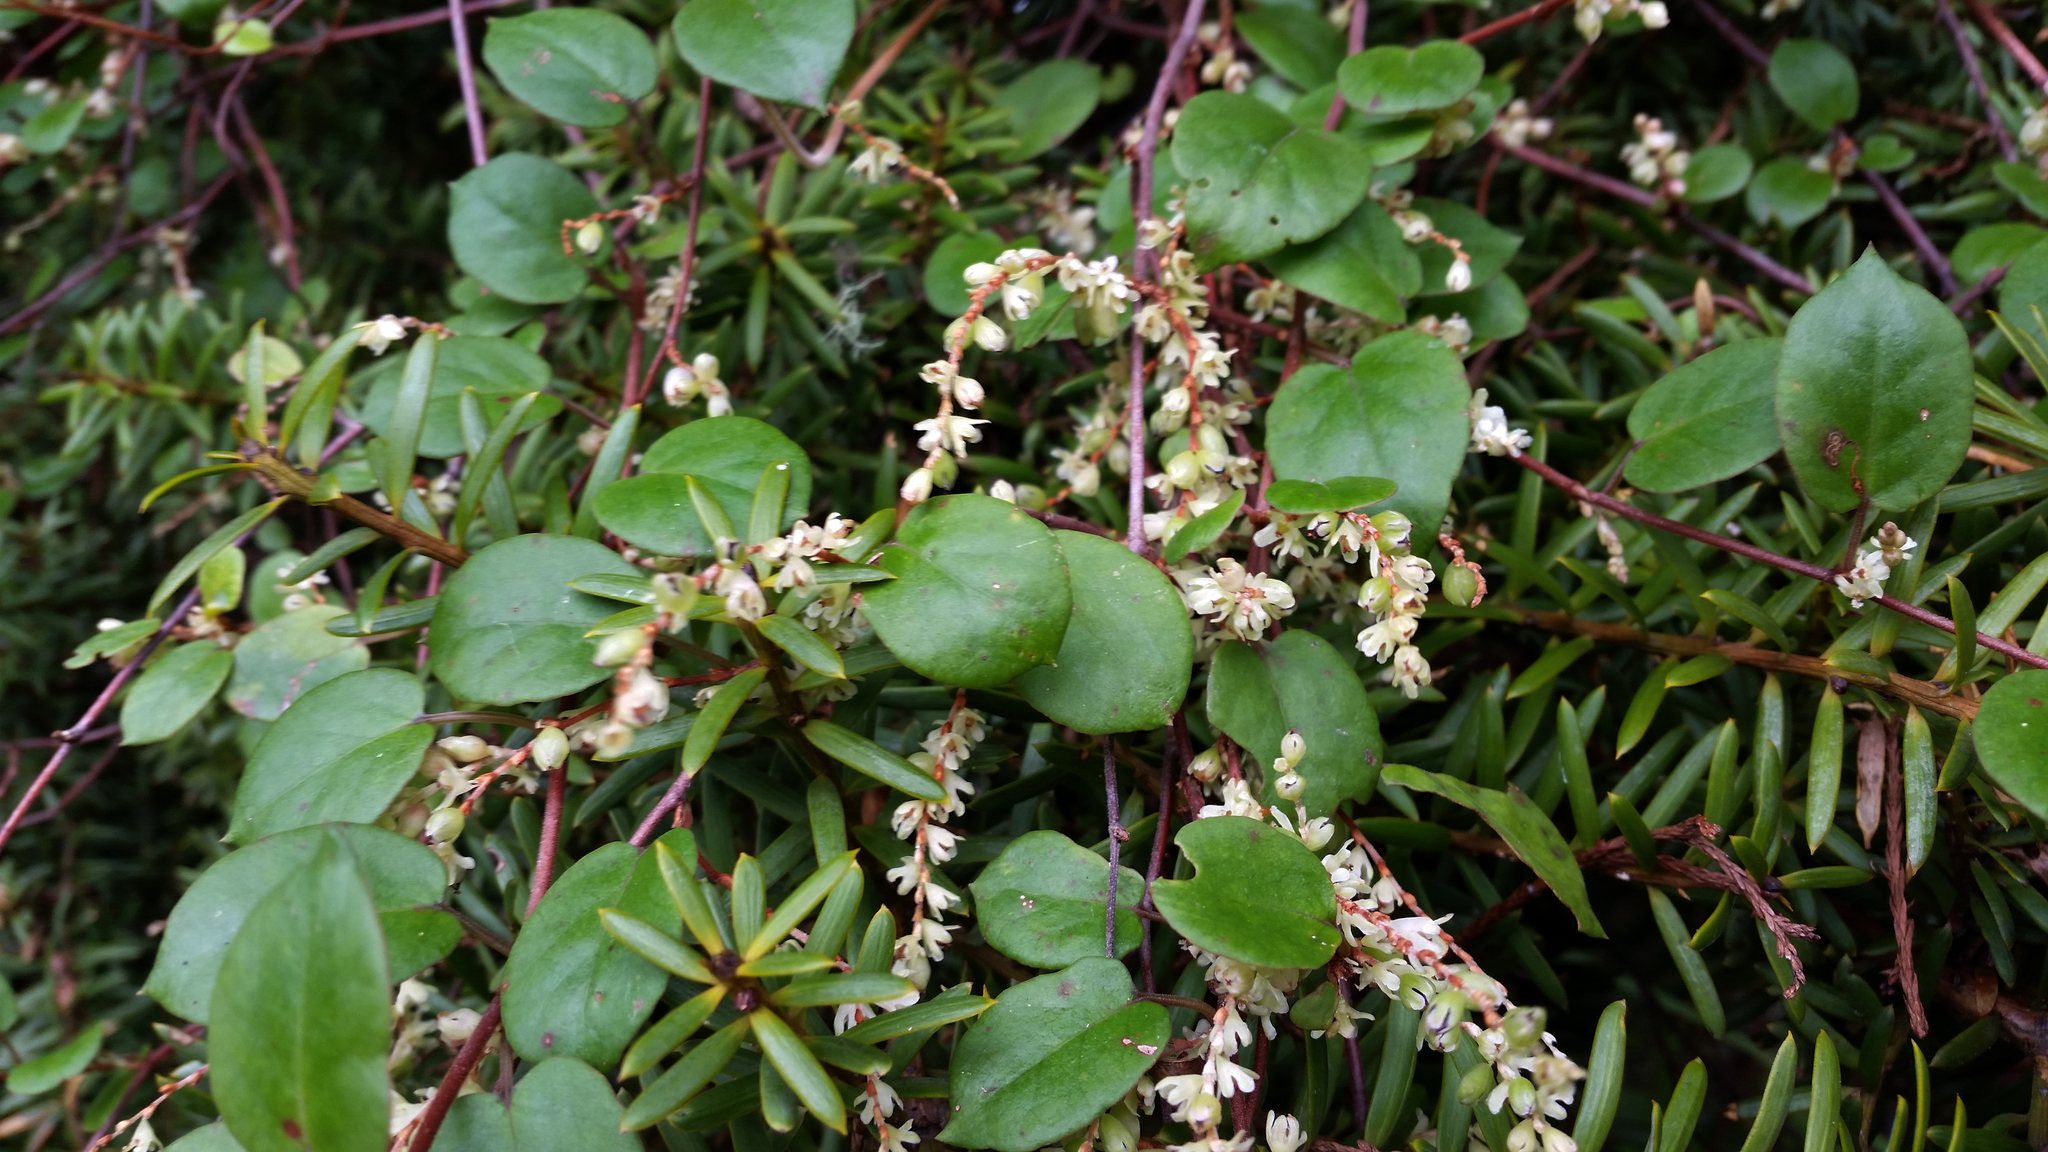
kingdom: Plantae
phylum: Tracheophyta
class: Magnoliopsida
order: Caryophyllales
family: Polygonaceae
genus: Muehlenbeckia
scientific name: Muehlenbeckia
